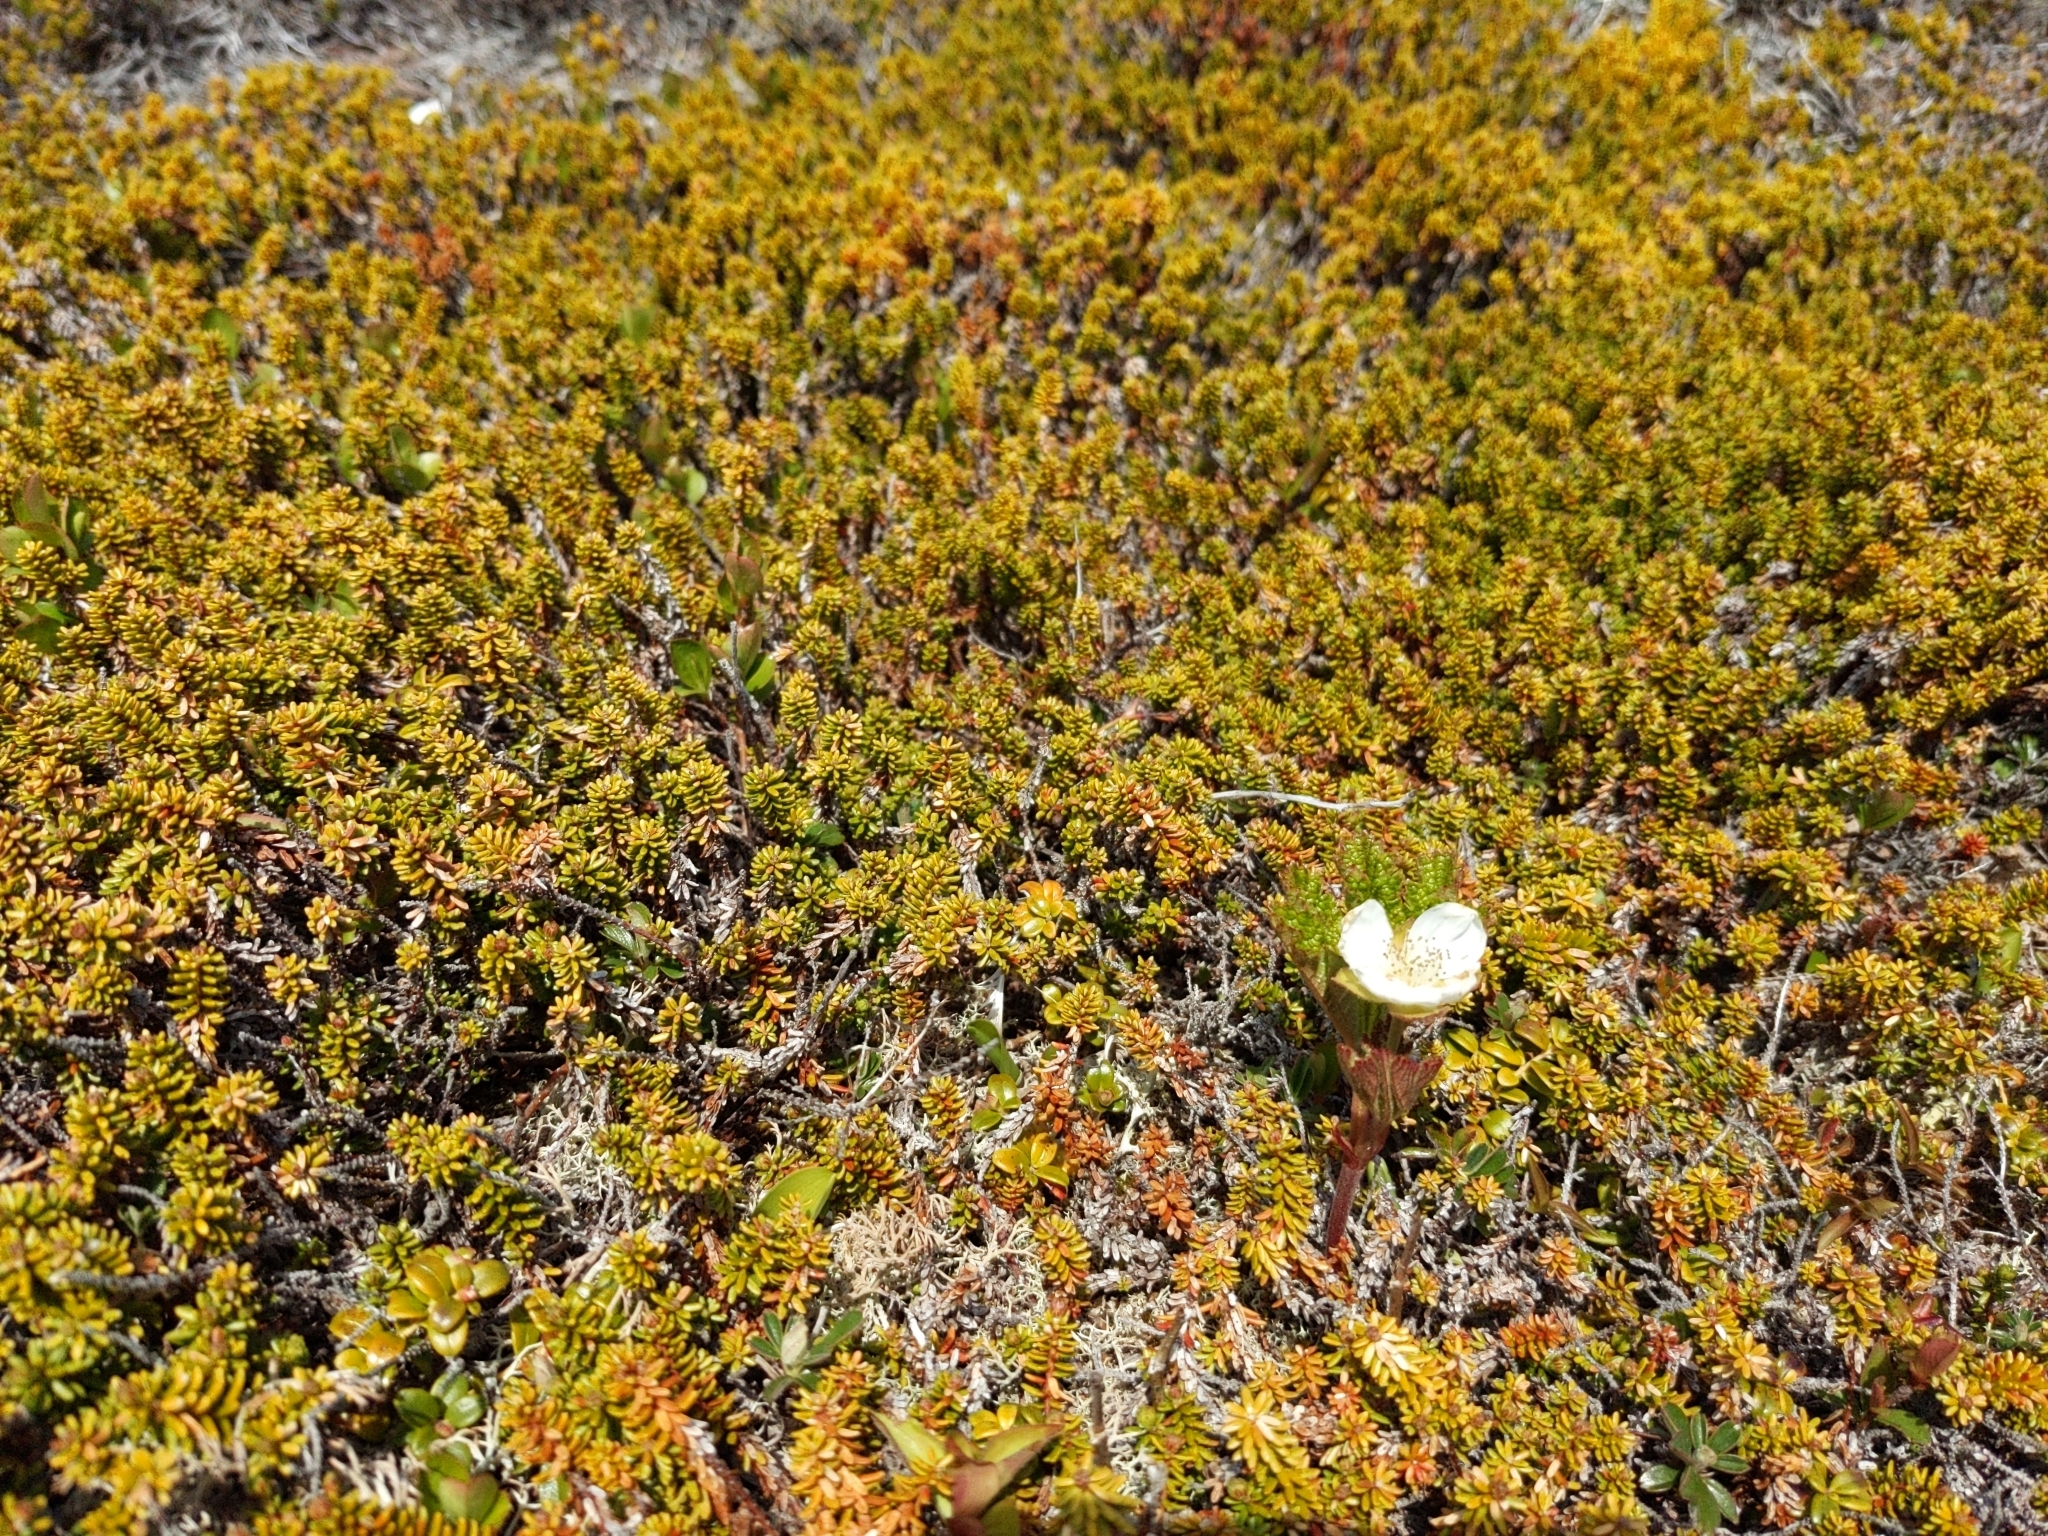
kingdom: Plantae
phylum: Tracheophyta
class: Magnoliopsida
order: Rosales
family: Rosaceae
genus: Rubus
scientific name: Rubus chamaemorus
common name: Cloudberry
